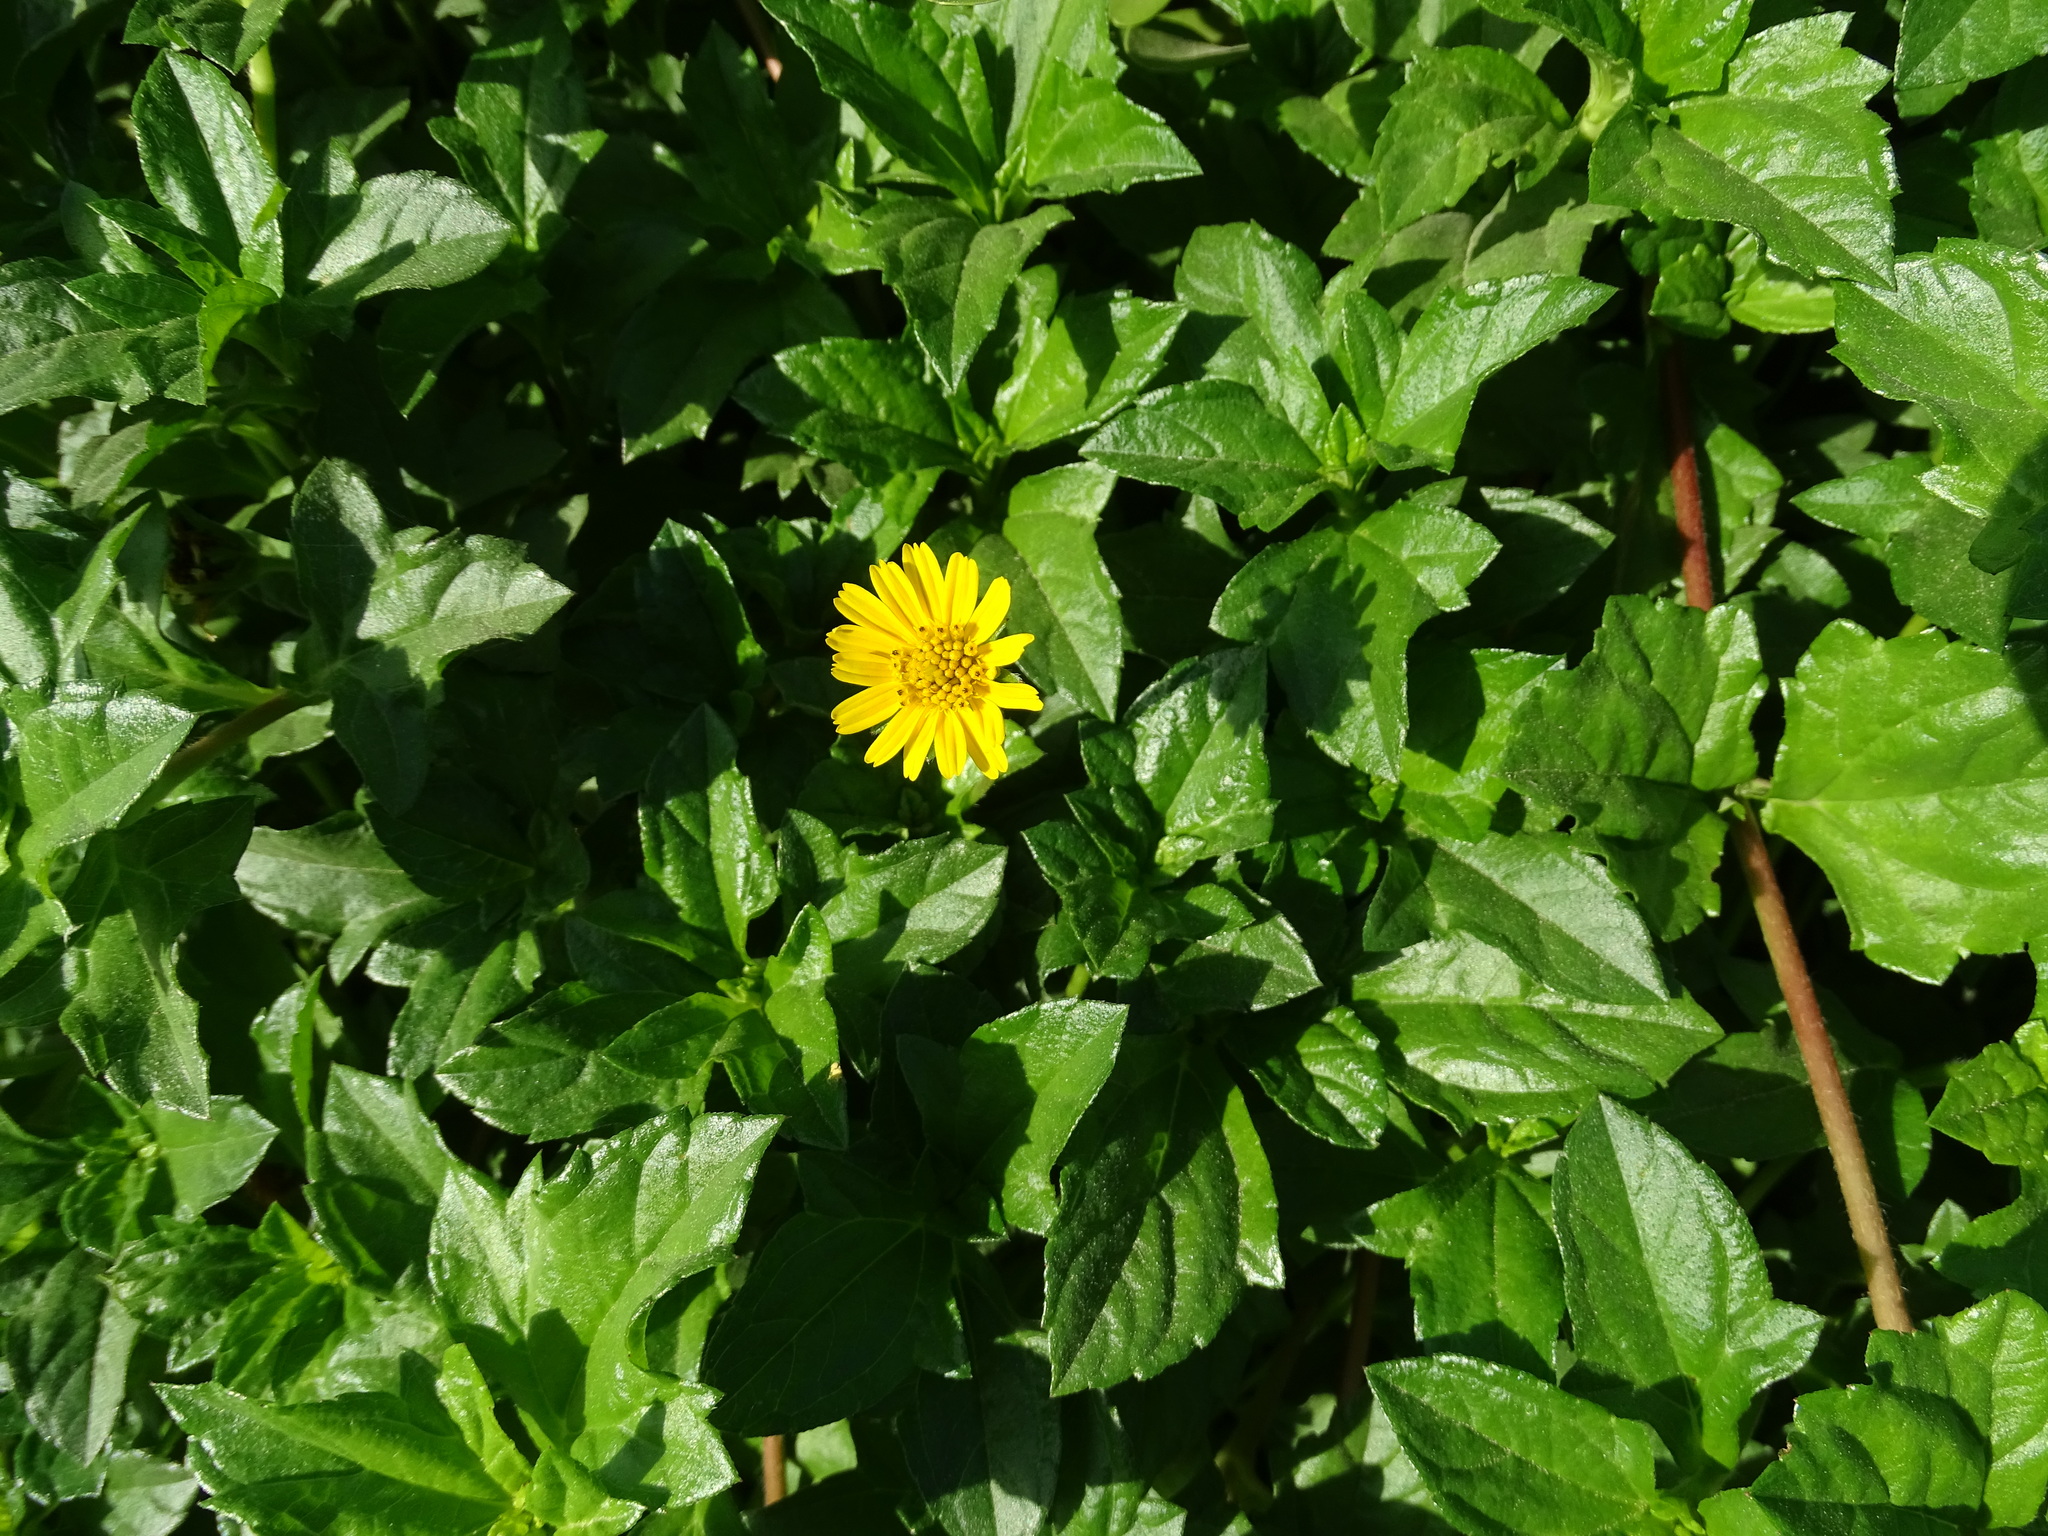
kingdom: Plantae
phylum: Tracheophyta
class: Magnoliopsida
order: Asterales
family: Asteraceae
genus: Sphagneticola
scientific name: Sphagneticola trilobata
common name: Bay biscayne creeping-oxeye
